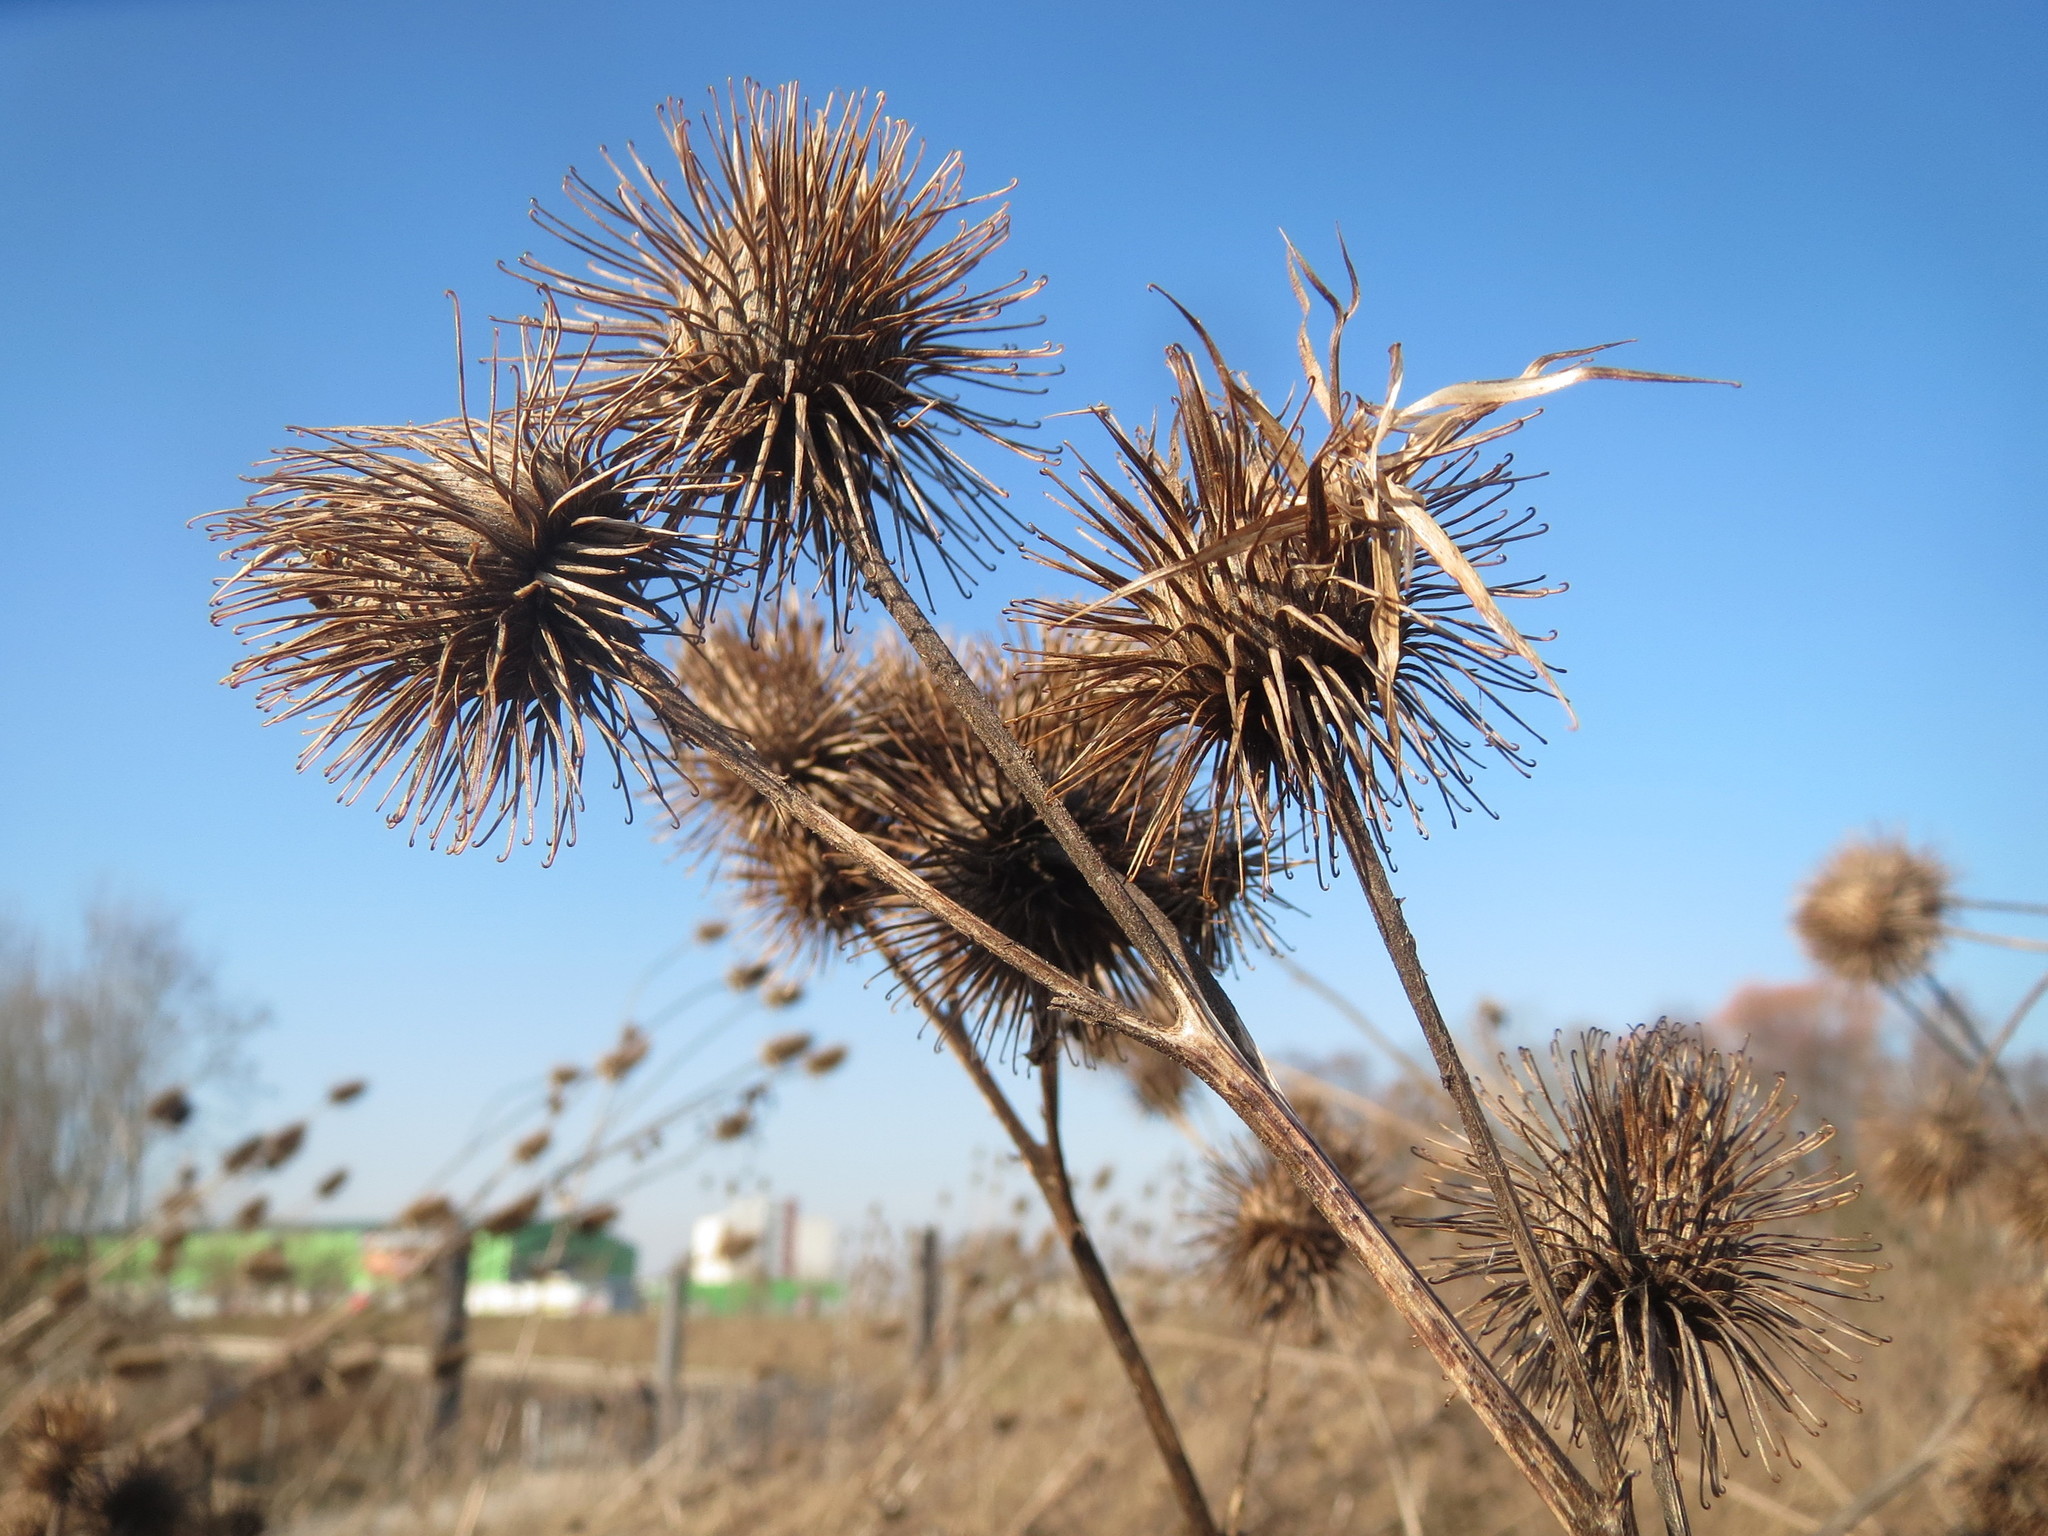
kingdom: Plantae
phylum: Tracheophyta
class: Magnoliopsida
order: Asterales
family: Asteraceae
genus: Arctium
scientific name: Arctium lappa
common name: Greater burdock
